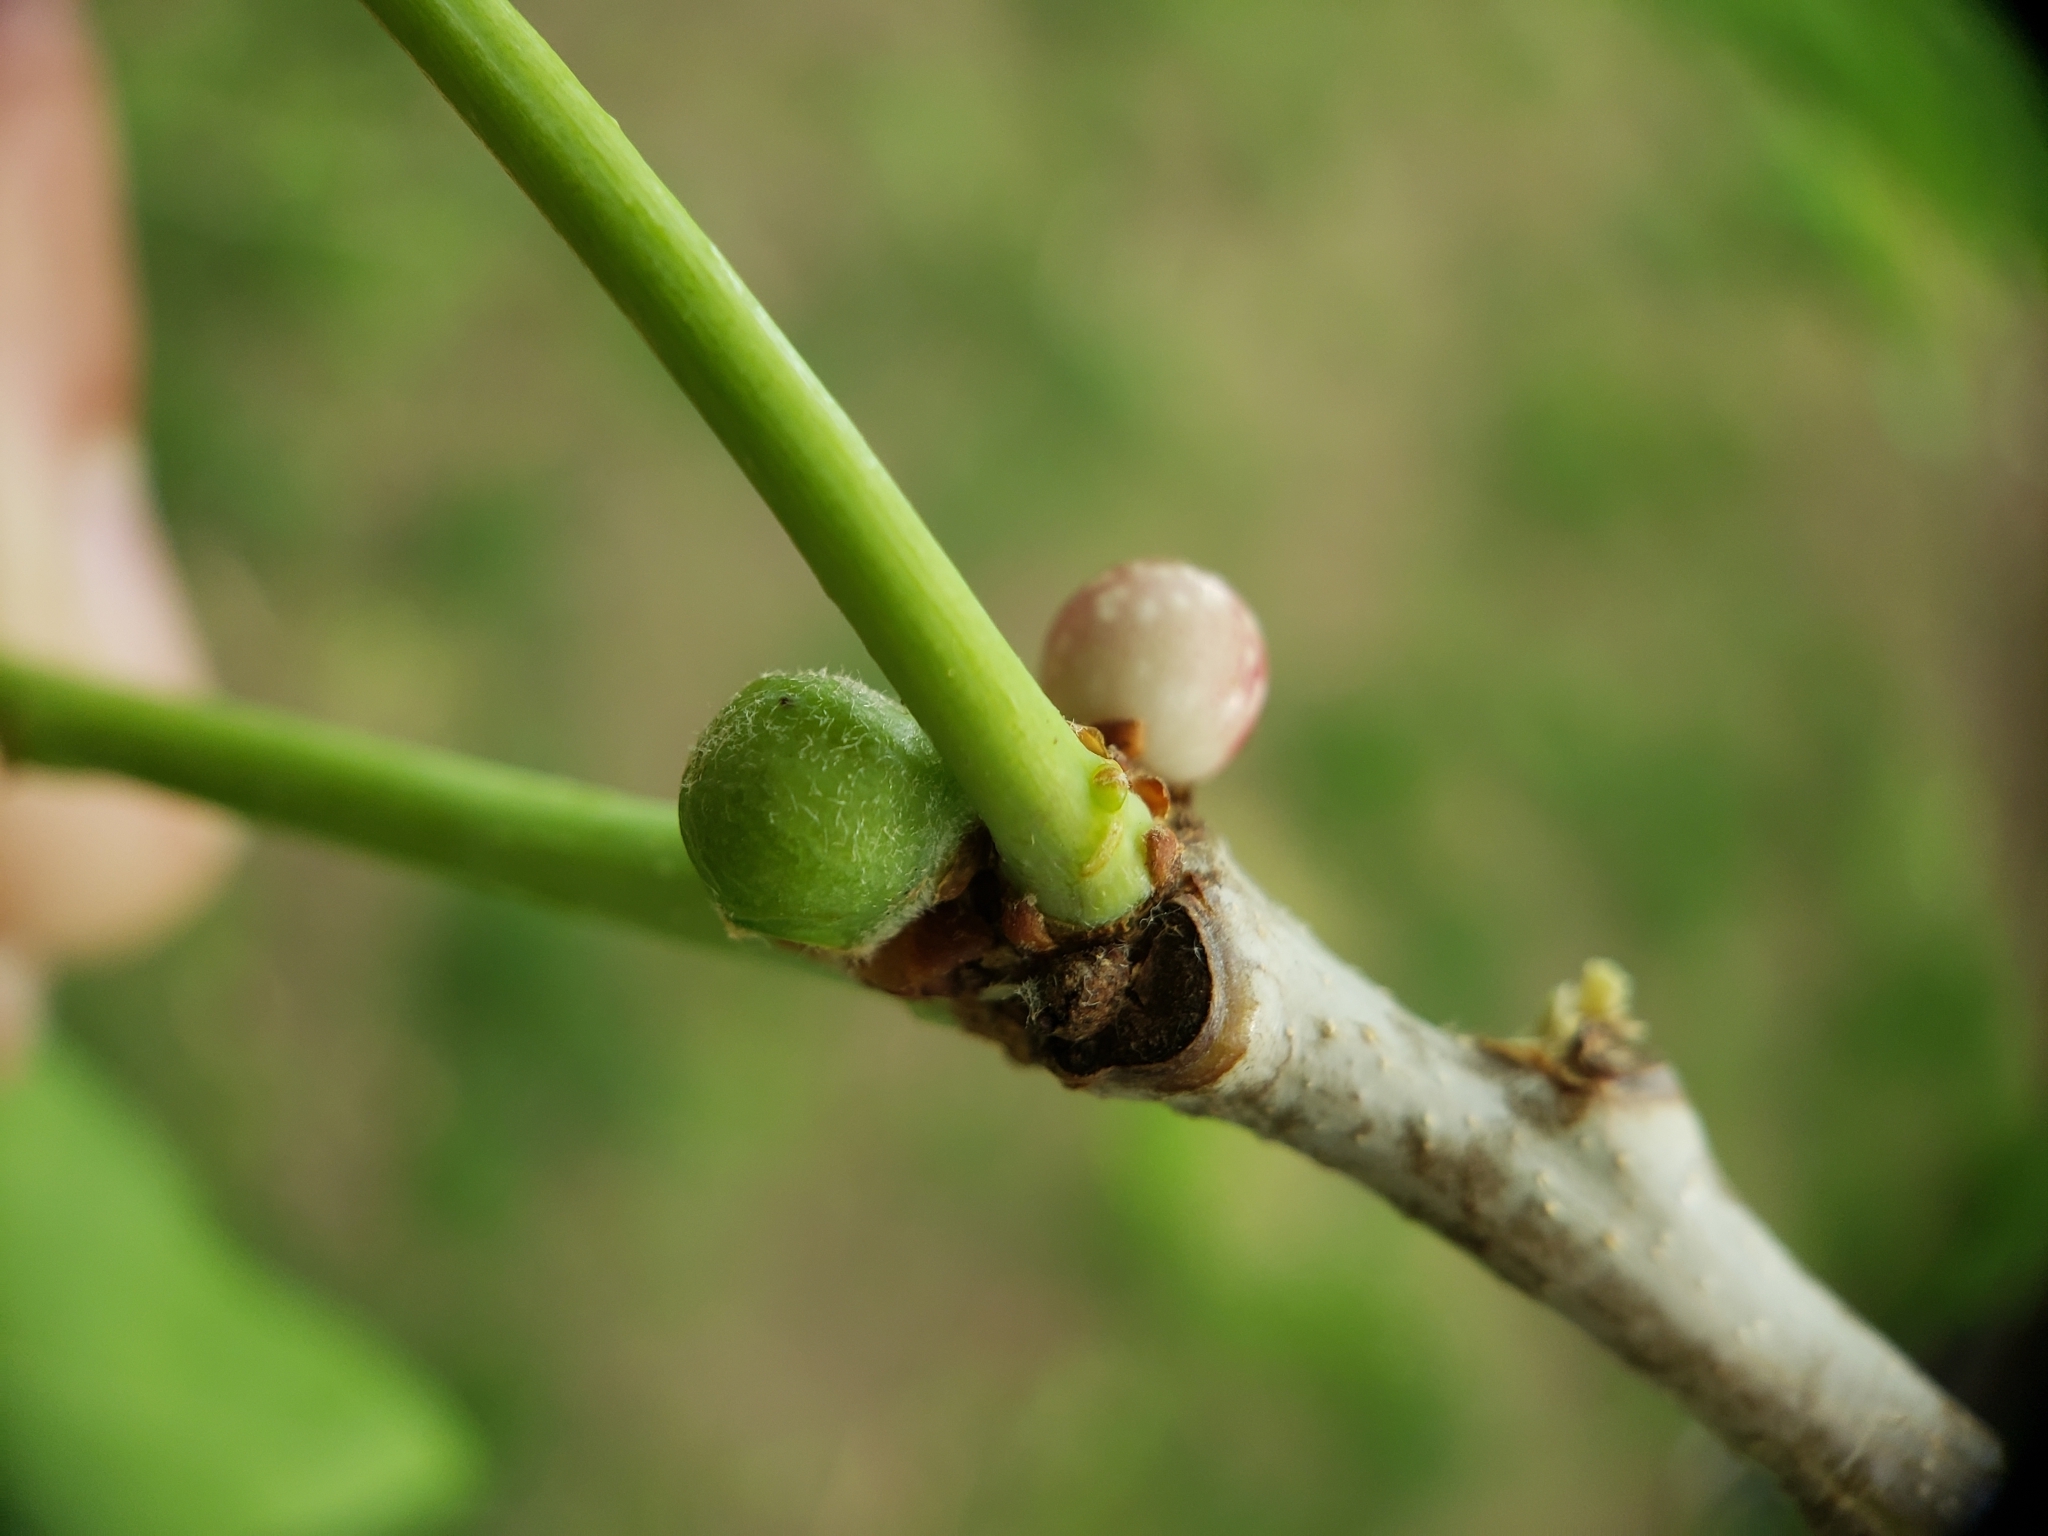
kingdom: Animalia
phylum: Arthropoda
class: Insecta
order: Hymenoptera
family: Cynipidae
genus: Andricus
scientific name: Andricus
